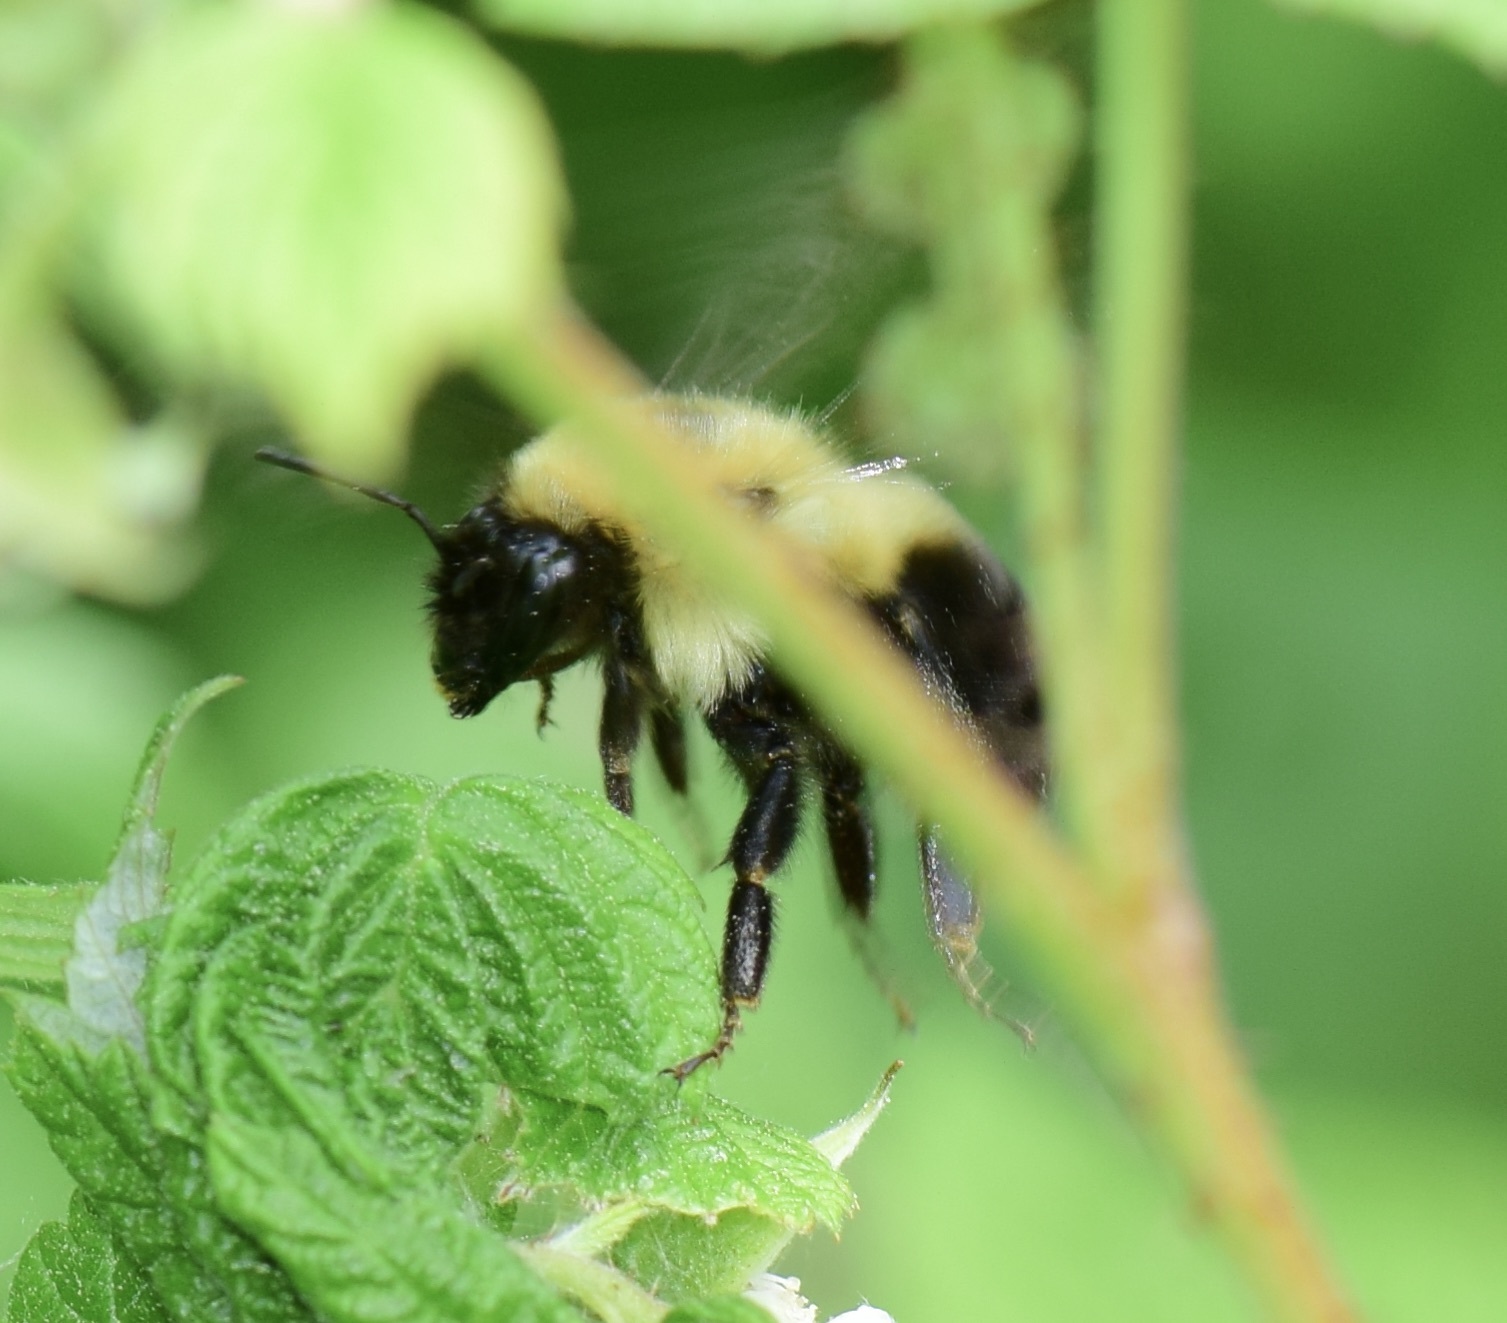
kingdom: Animalia
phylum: Arthropoda
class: Insecta
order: Hymenoptera
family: Apidae
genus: Bombus
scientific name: Bombus bimaculatus
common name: Two-spotted bumble bee
